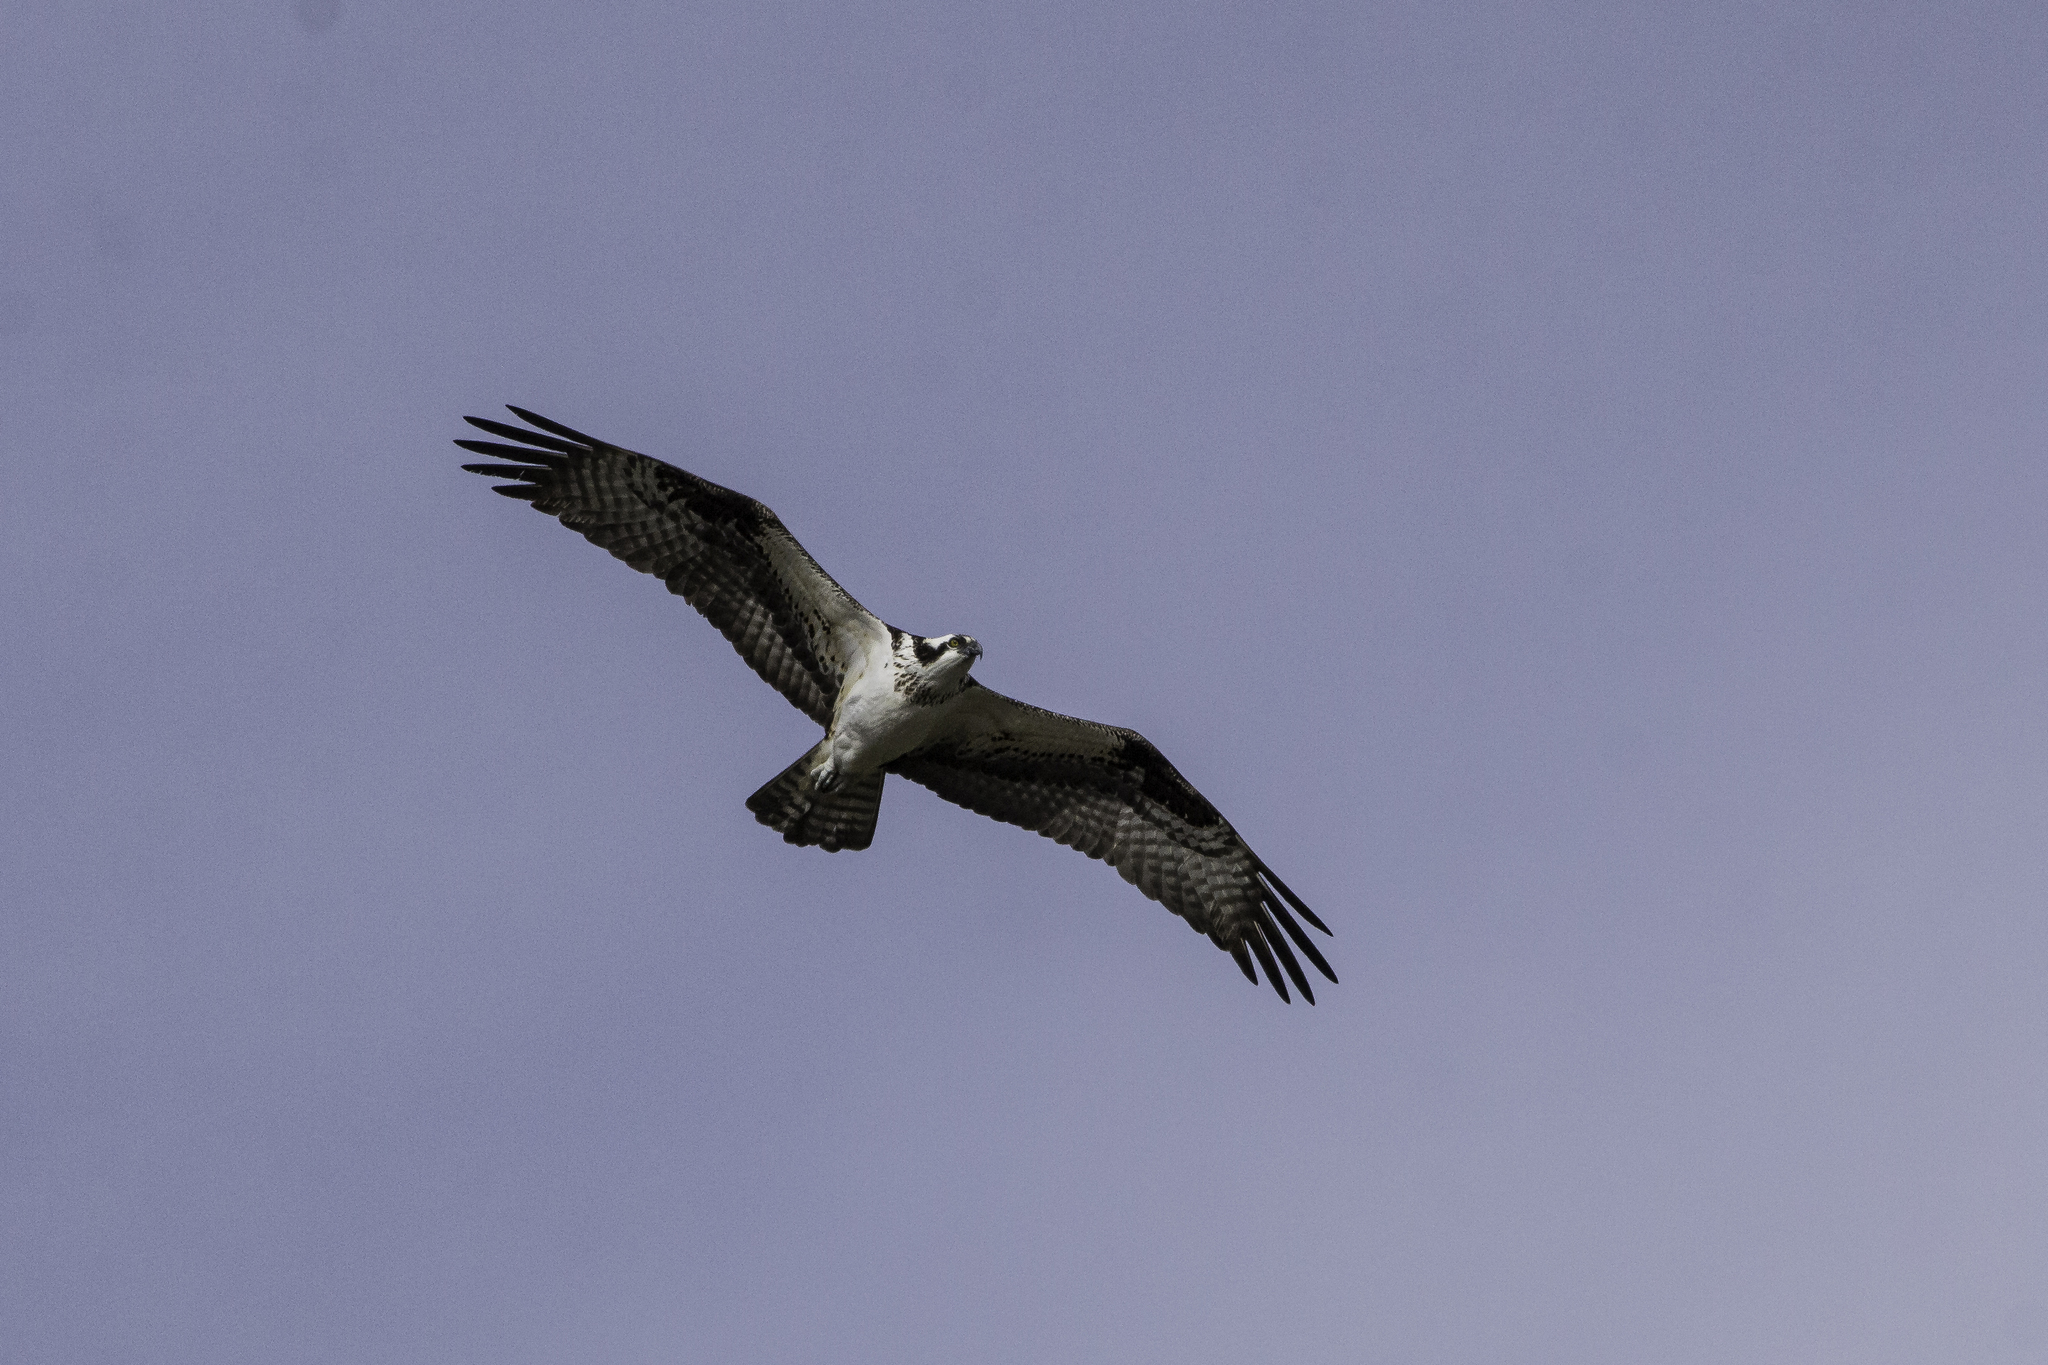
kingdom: Animalia
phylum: Chordata
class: Aves
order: Accipitriformes
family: Pandionidae
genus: Pandion
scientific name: Pandion haliaetus
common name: Osprey
